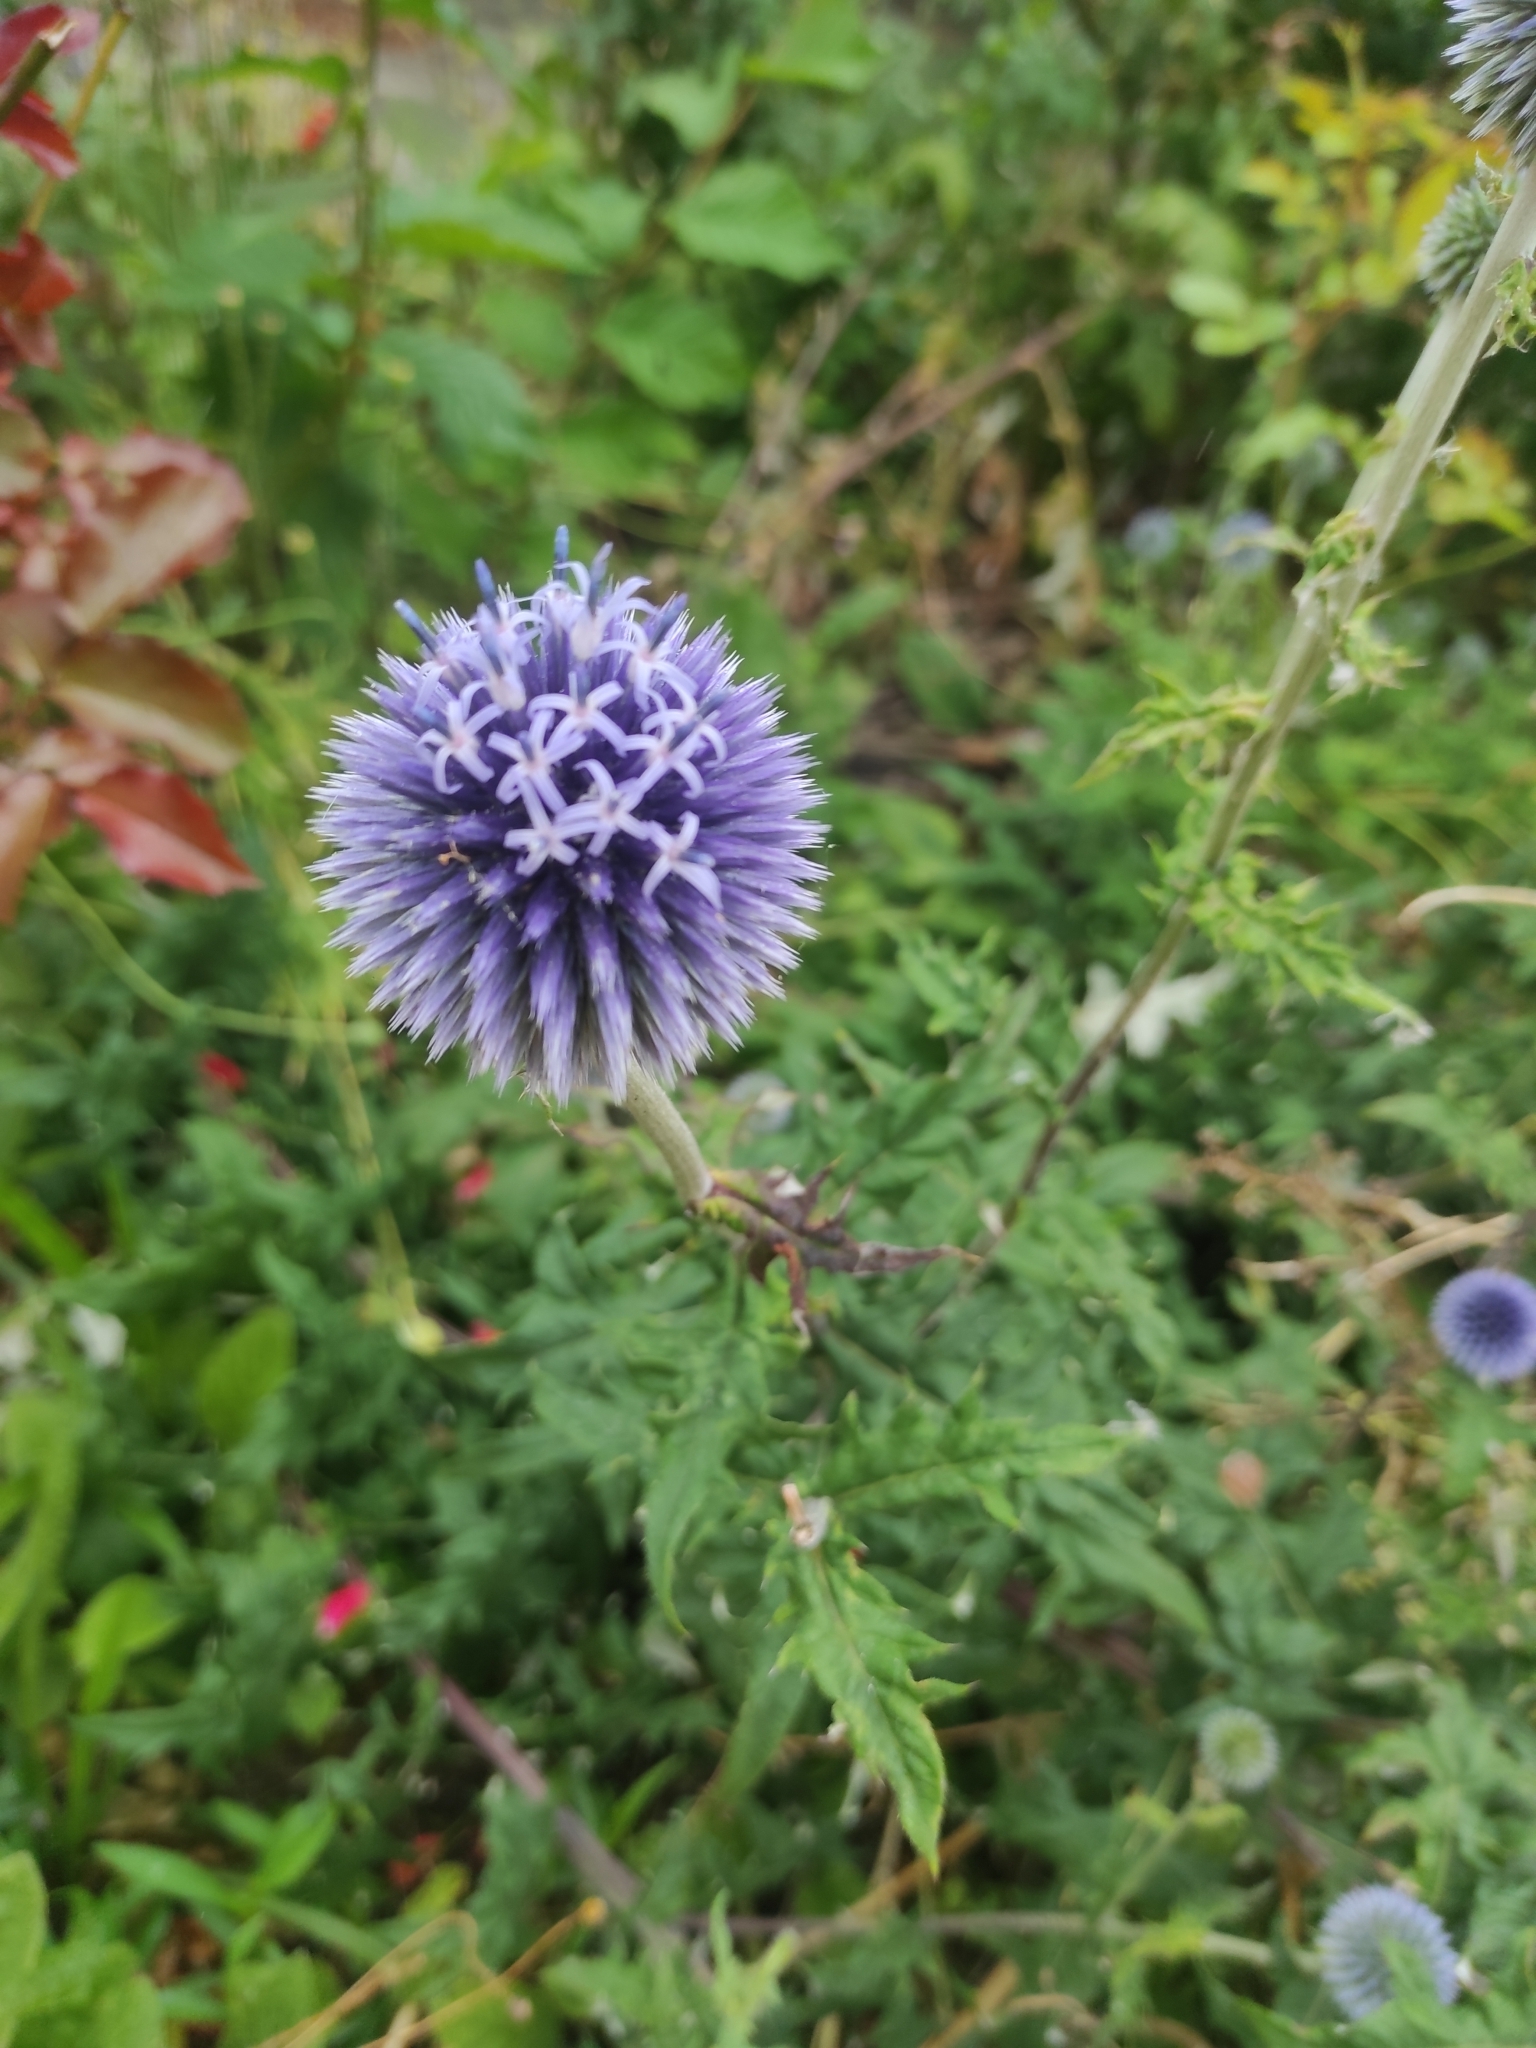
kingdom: Plantae
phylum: Tracheophyta
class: Magnoliopsida
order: Asterales
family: Asteraceae
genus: Echinops
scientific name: Echinops bannaticus
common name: Blue globe-thistle
